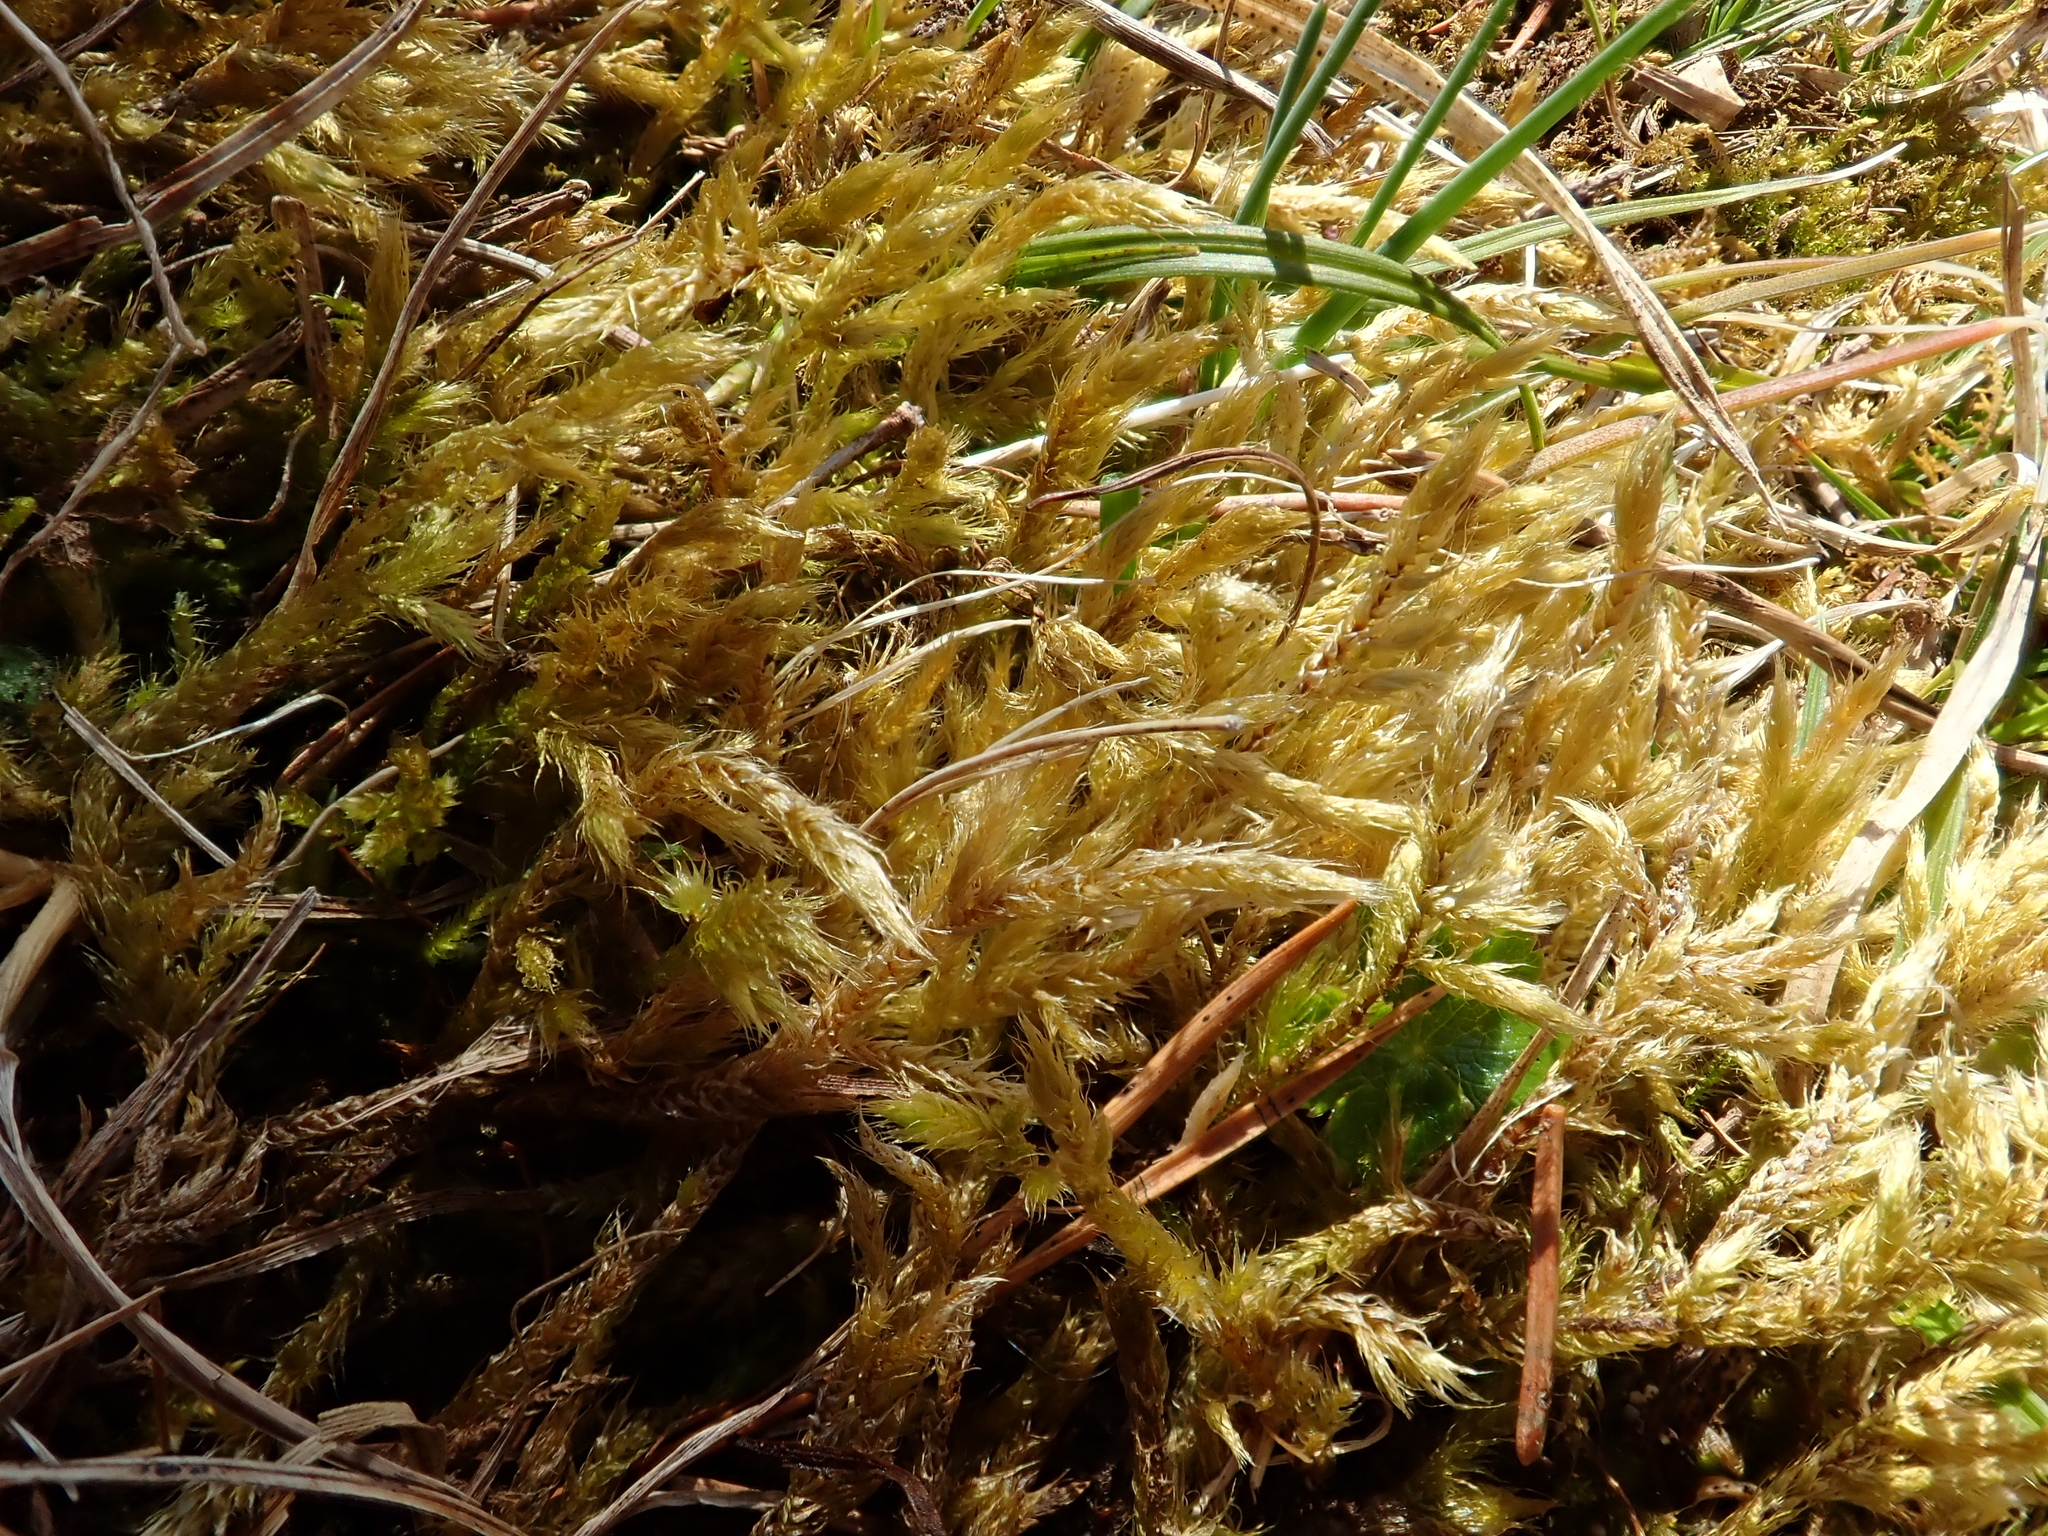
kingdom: Plantae
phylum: Bryophyta
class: Bryopsida
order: Hypnales
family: Brachytheciaceae
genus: Brachythecium
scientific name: Brachythecium glareosum
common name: Streaky feather-moss
